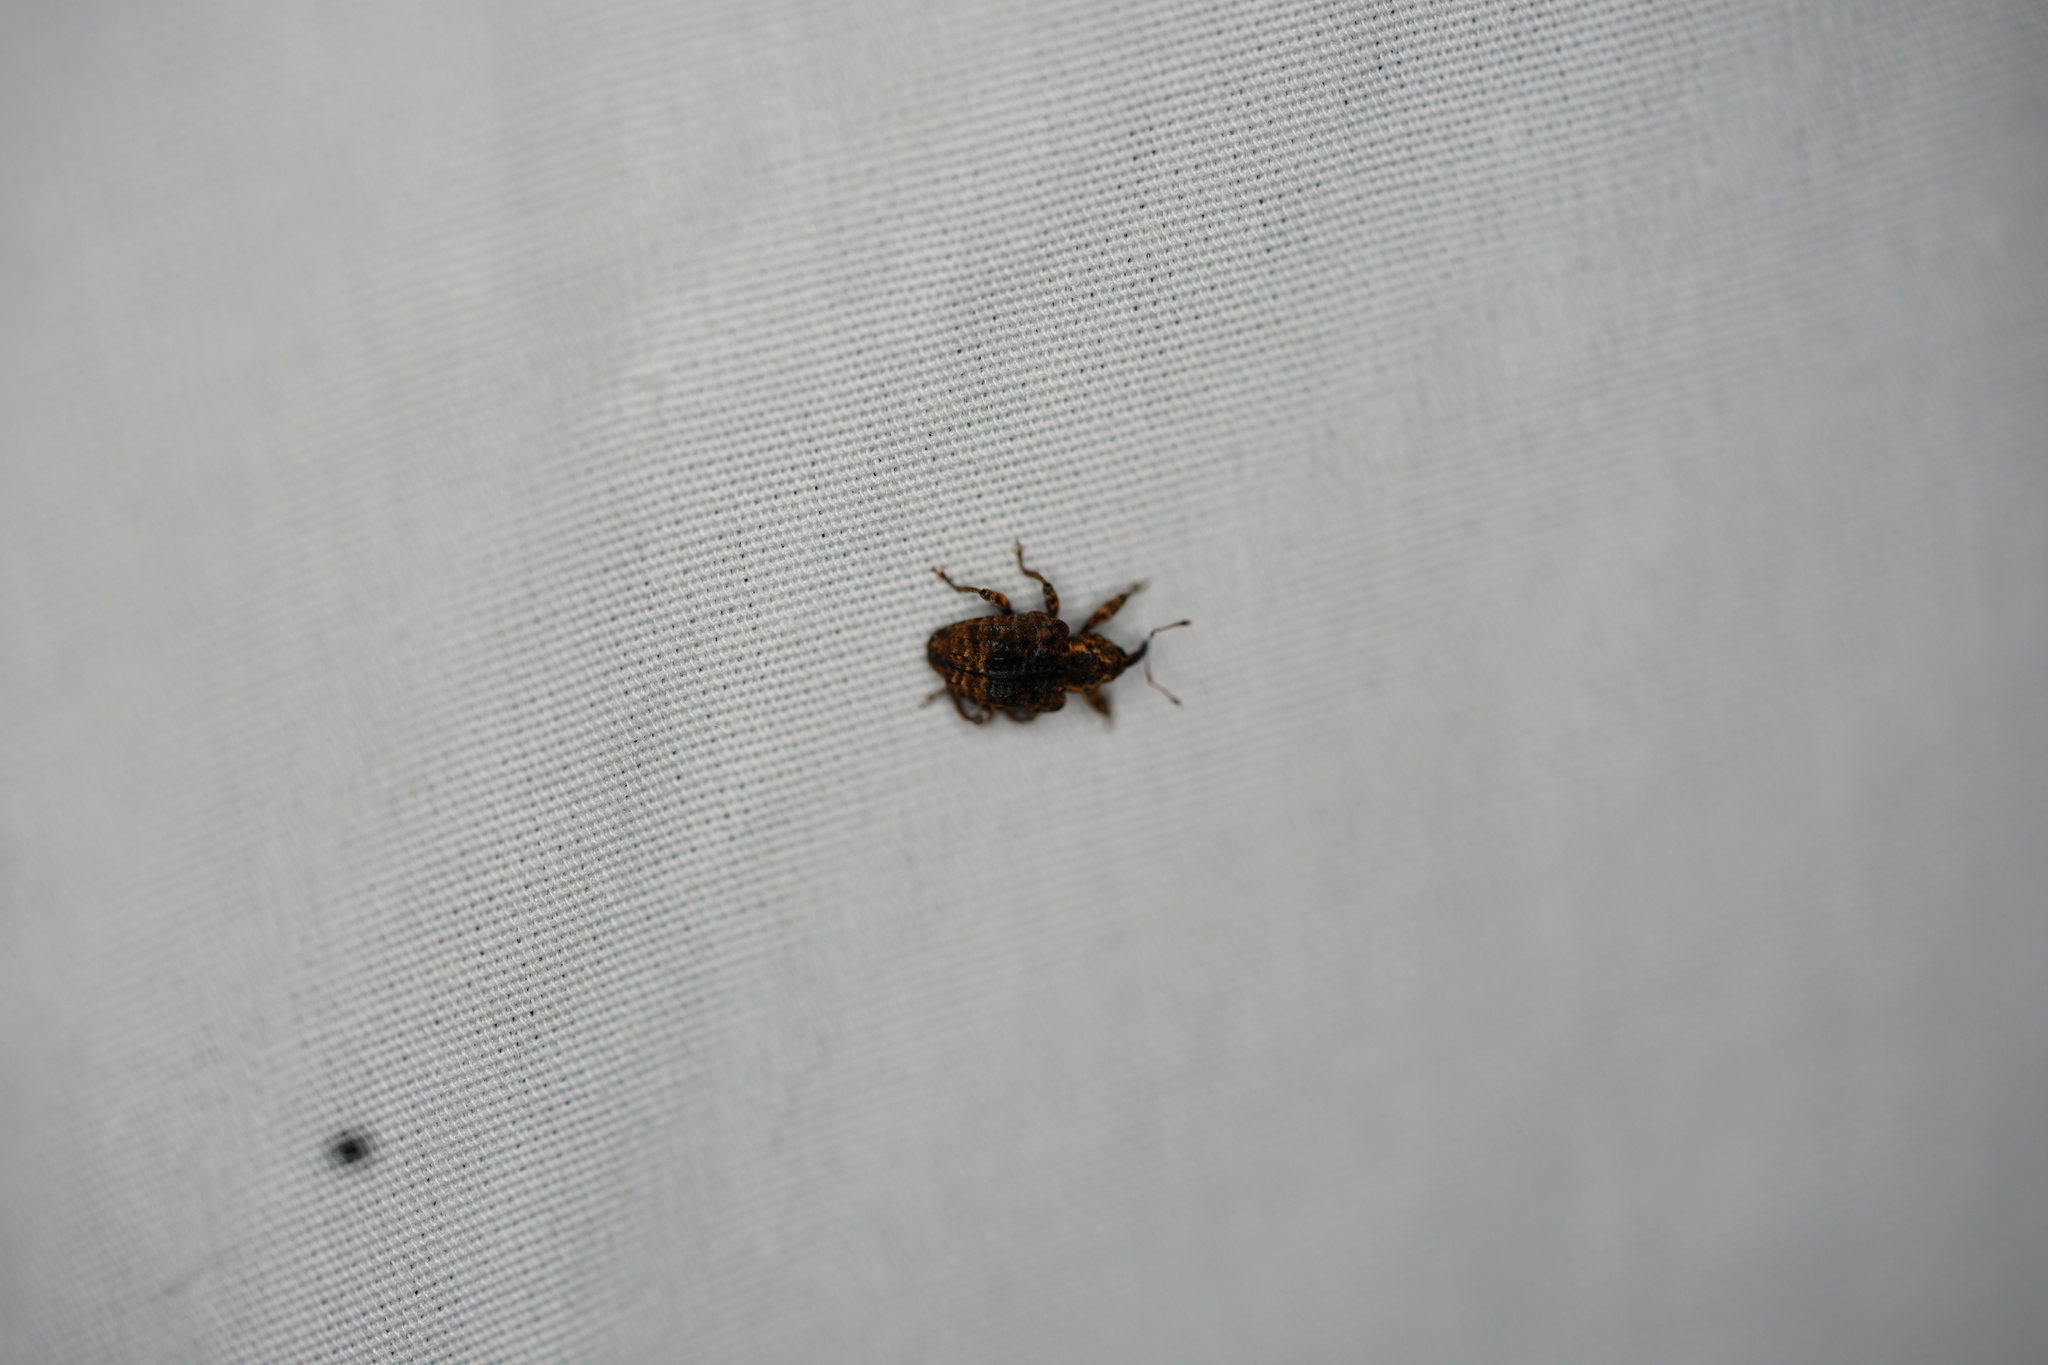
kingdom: Animalia
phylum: Arthropoda
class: Insecta
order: Coleoptera
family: Curculionidae
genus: Conotrachelus
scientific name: Conotrachelus iowensis
